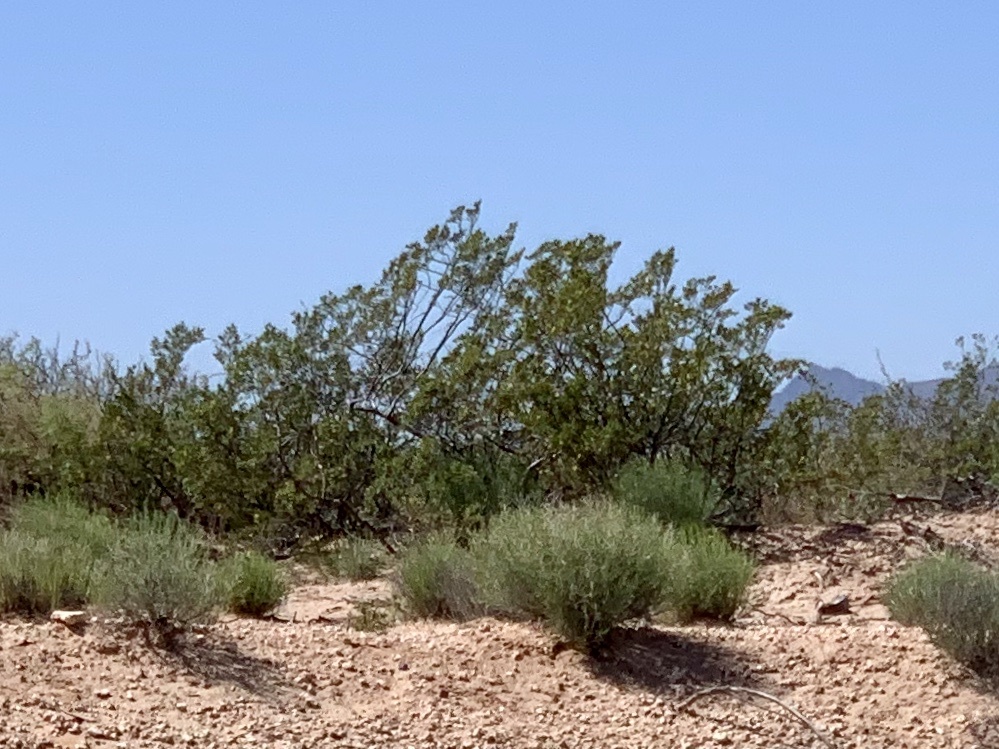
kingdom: Plantae
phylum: Tracheophyta
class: Magnoliopsida
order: Zygophyllales
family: Zygophyllaceae
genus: Larrea
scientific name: Larrea tridentata
